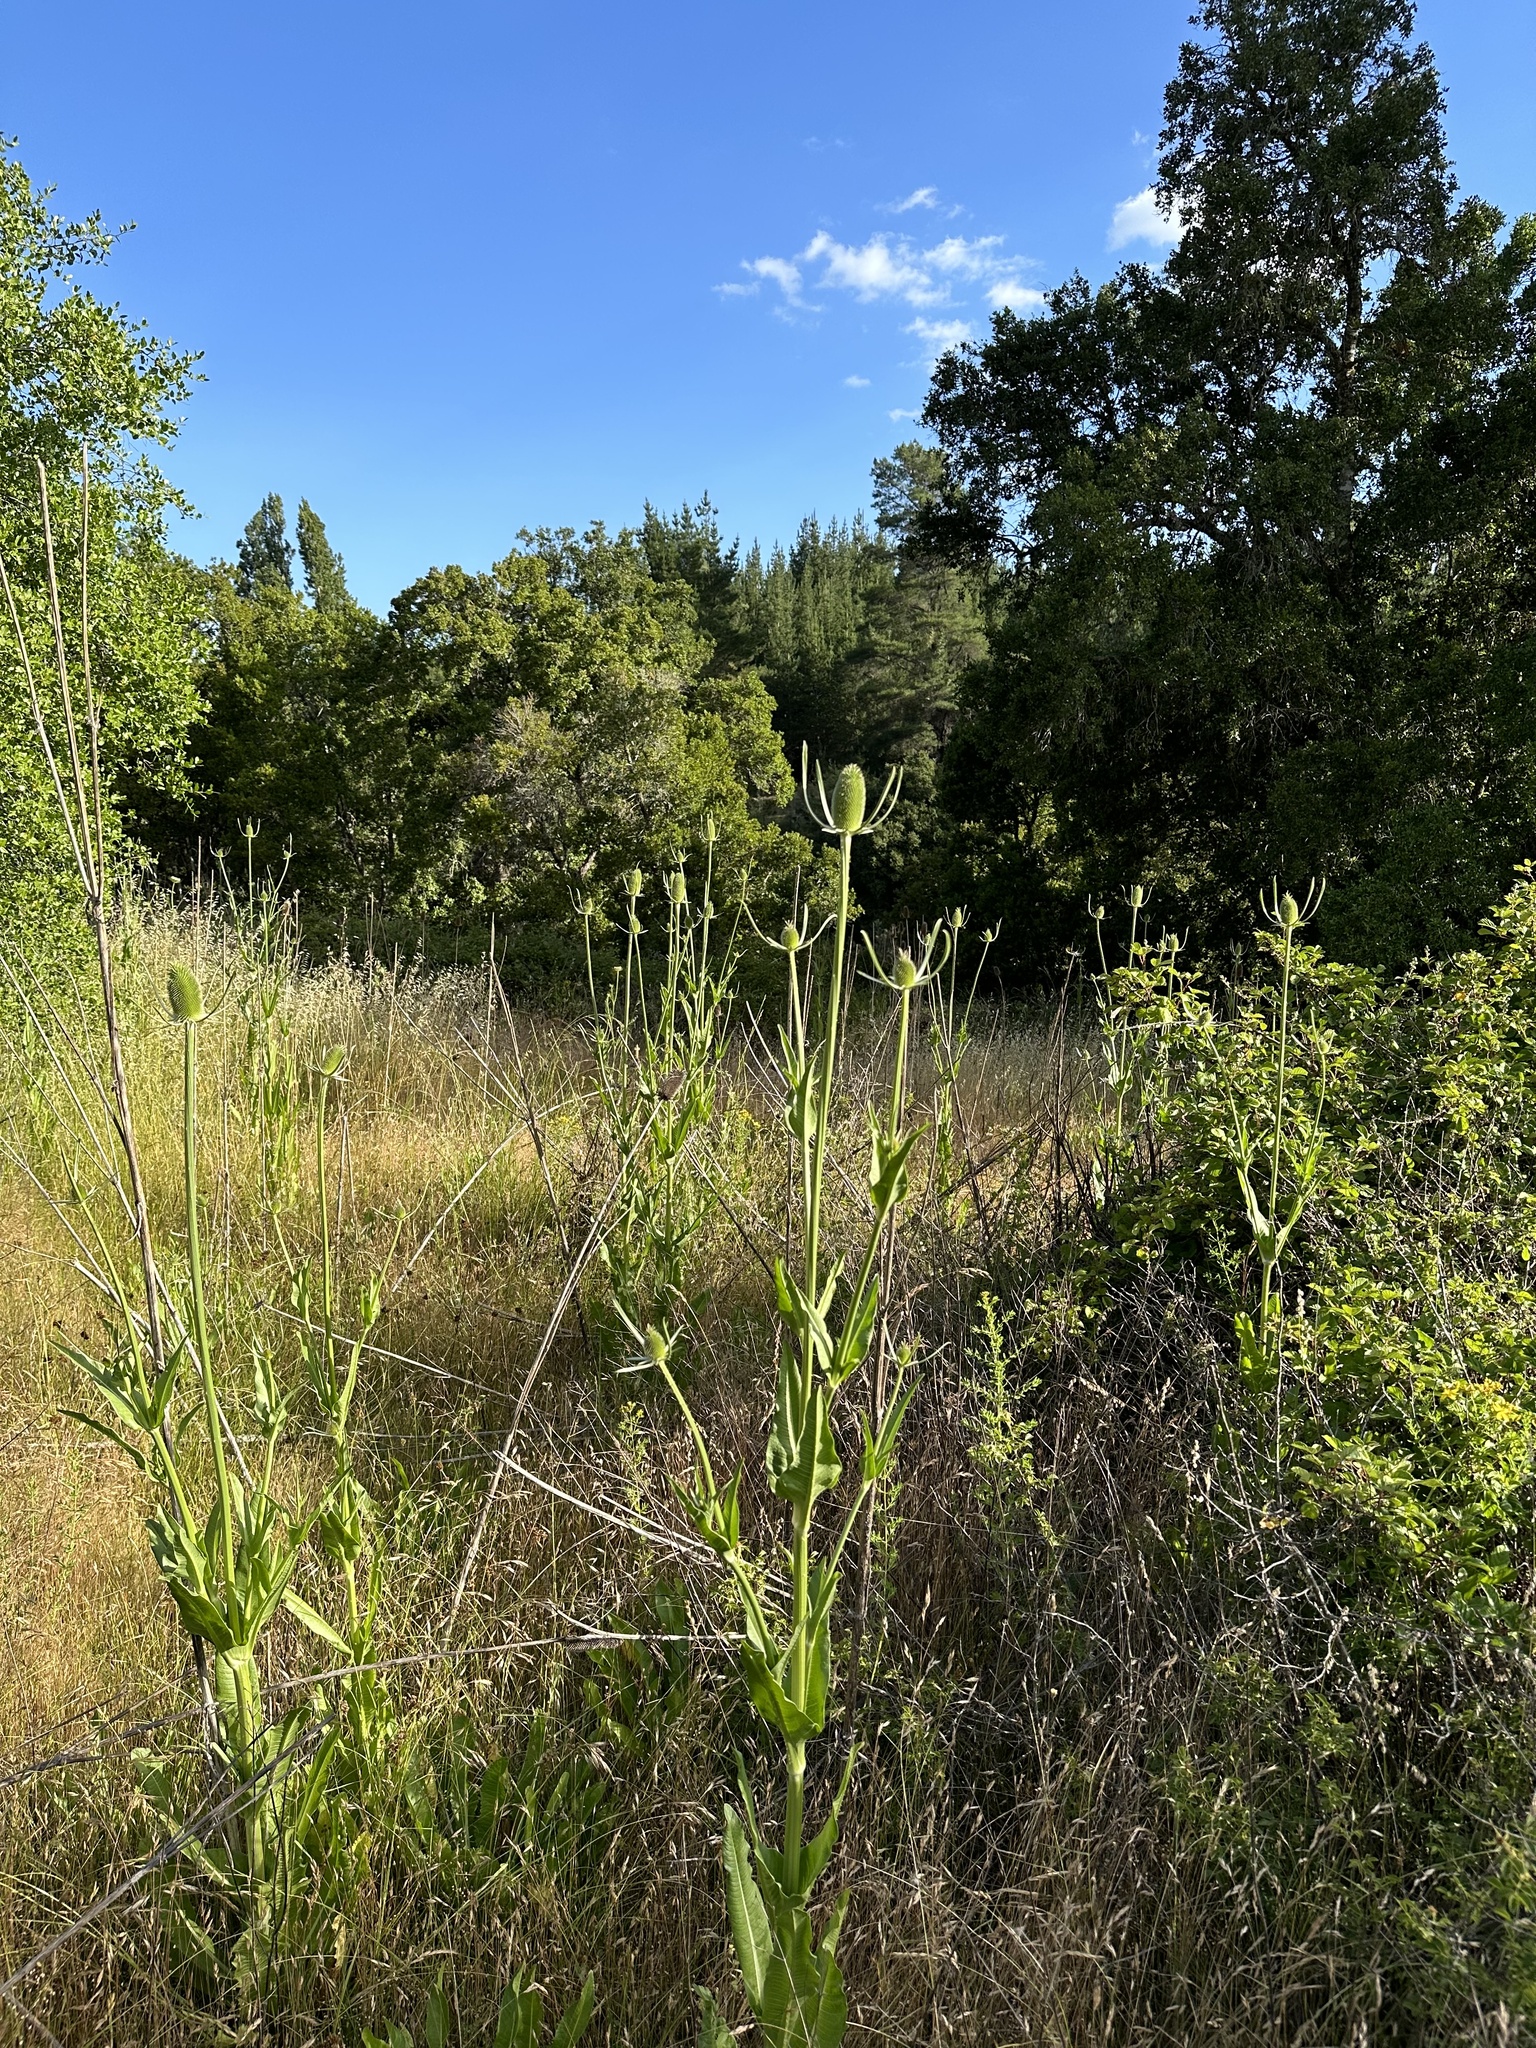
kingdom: Plantae
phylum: Tracheophyta
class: Magnoliopsida
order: Dipsacales
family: Caprifoliaceae
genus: Dipsacus
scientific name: Dipsacus sativus
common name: Fuller's teasel
